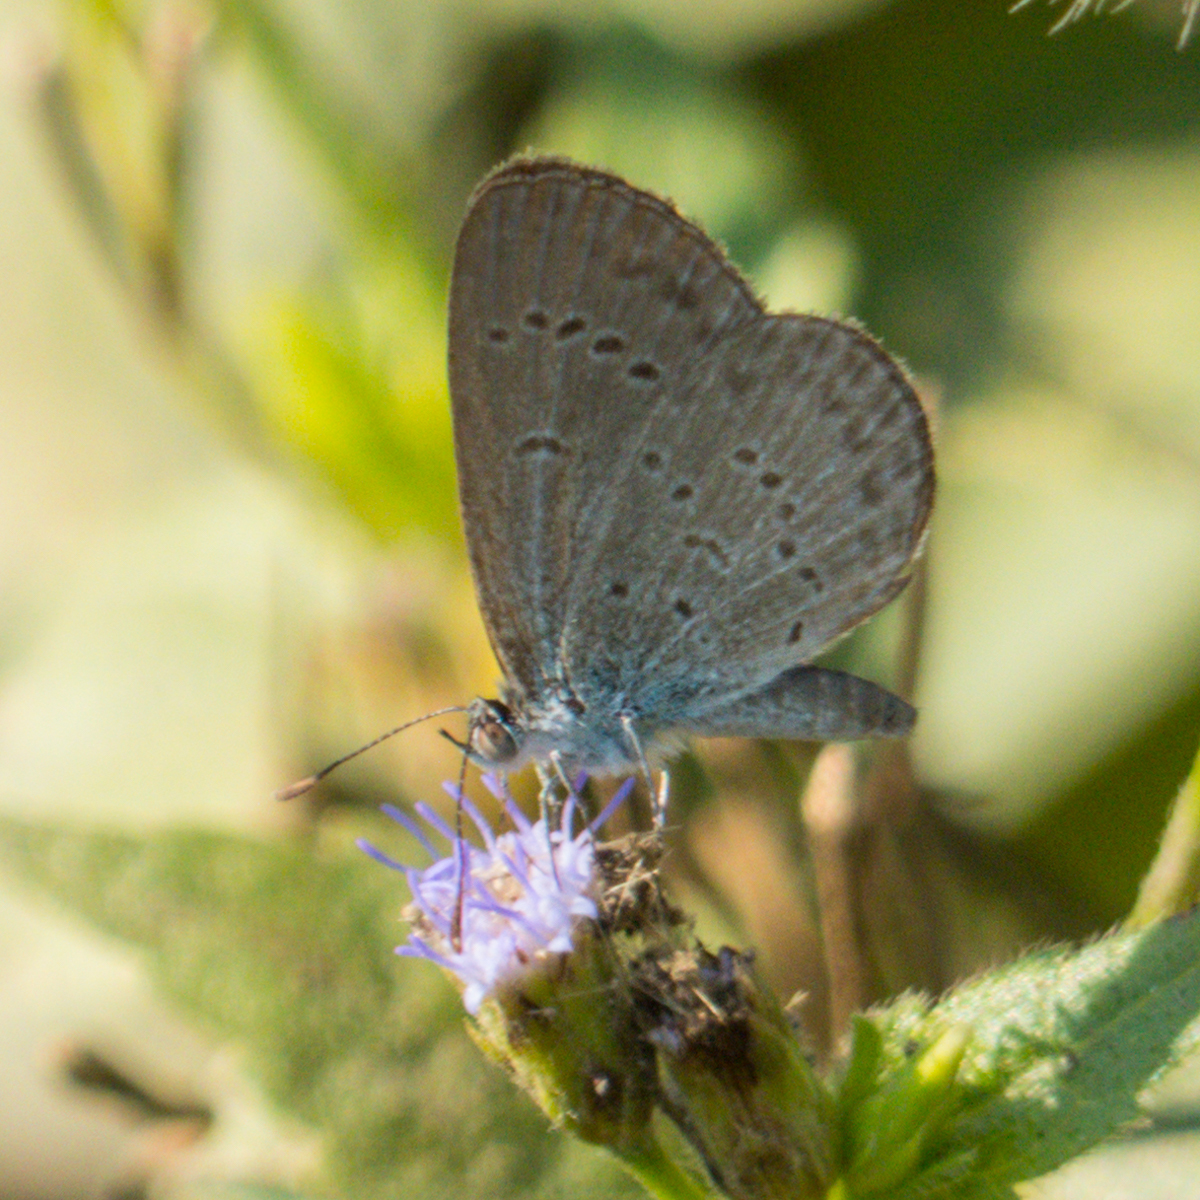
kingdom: Animalia
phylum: Arthropoda
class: Insecta
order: Lepidoptera
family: Lycaenidae
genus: Zizina
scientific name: Zizina otis
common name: Lesser grass blue
